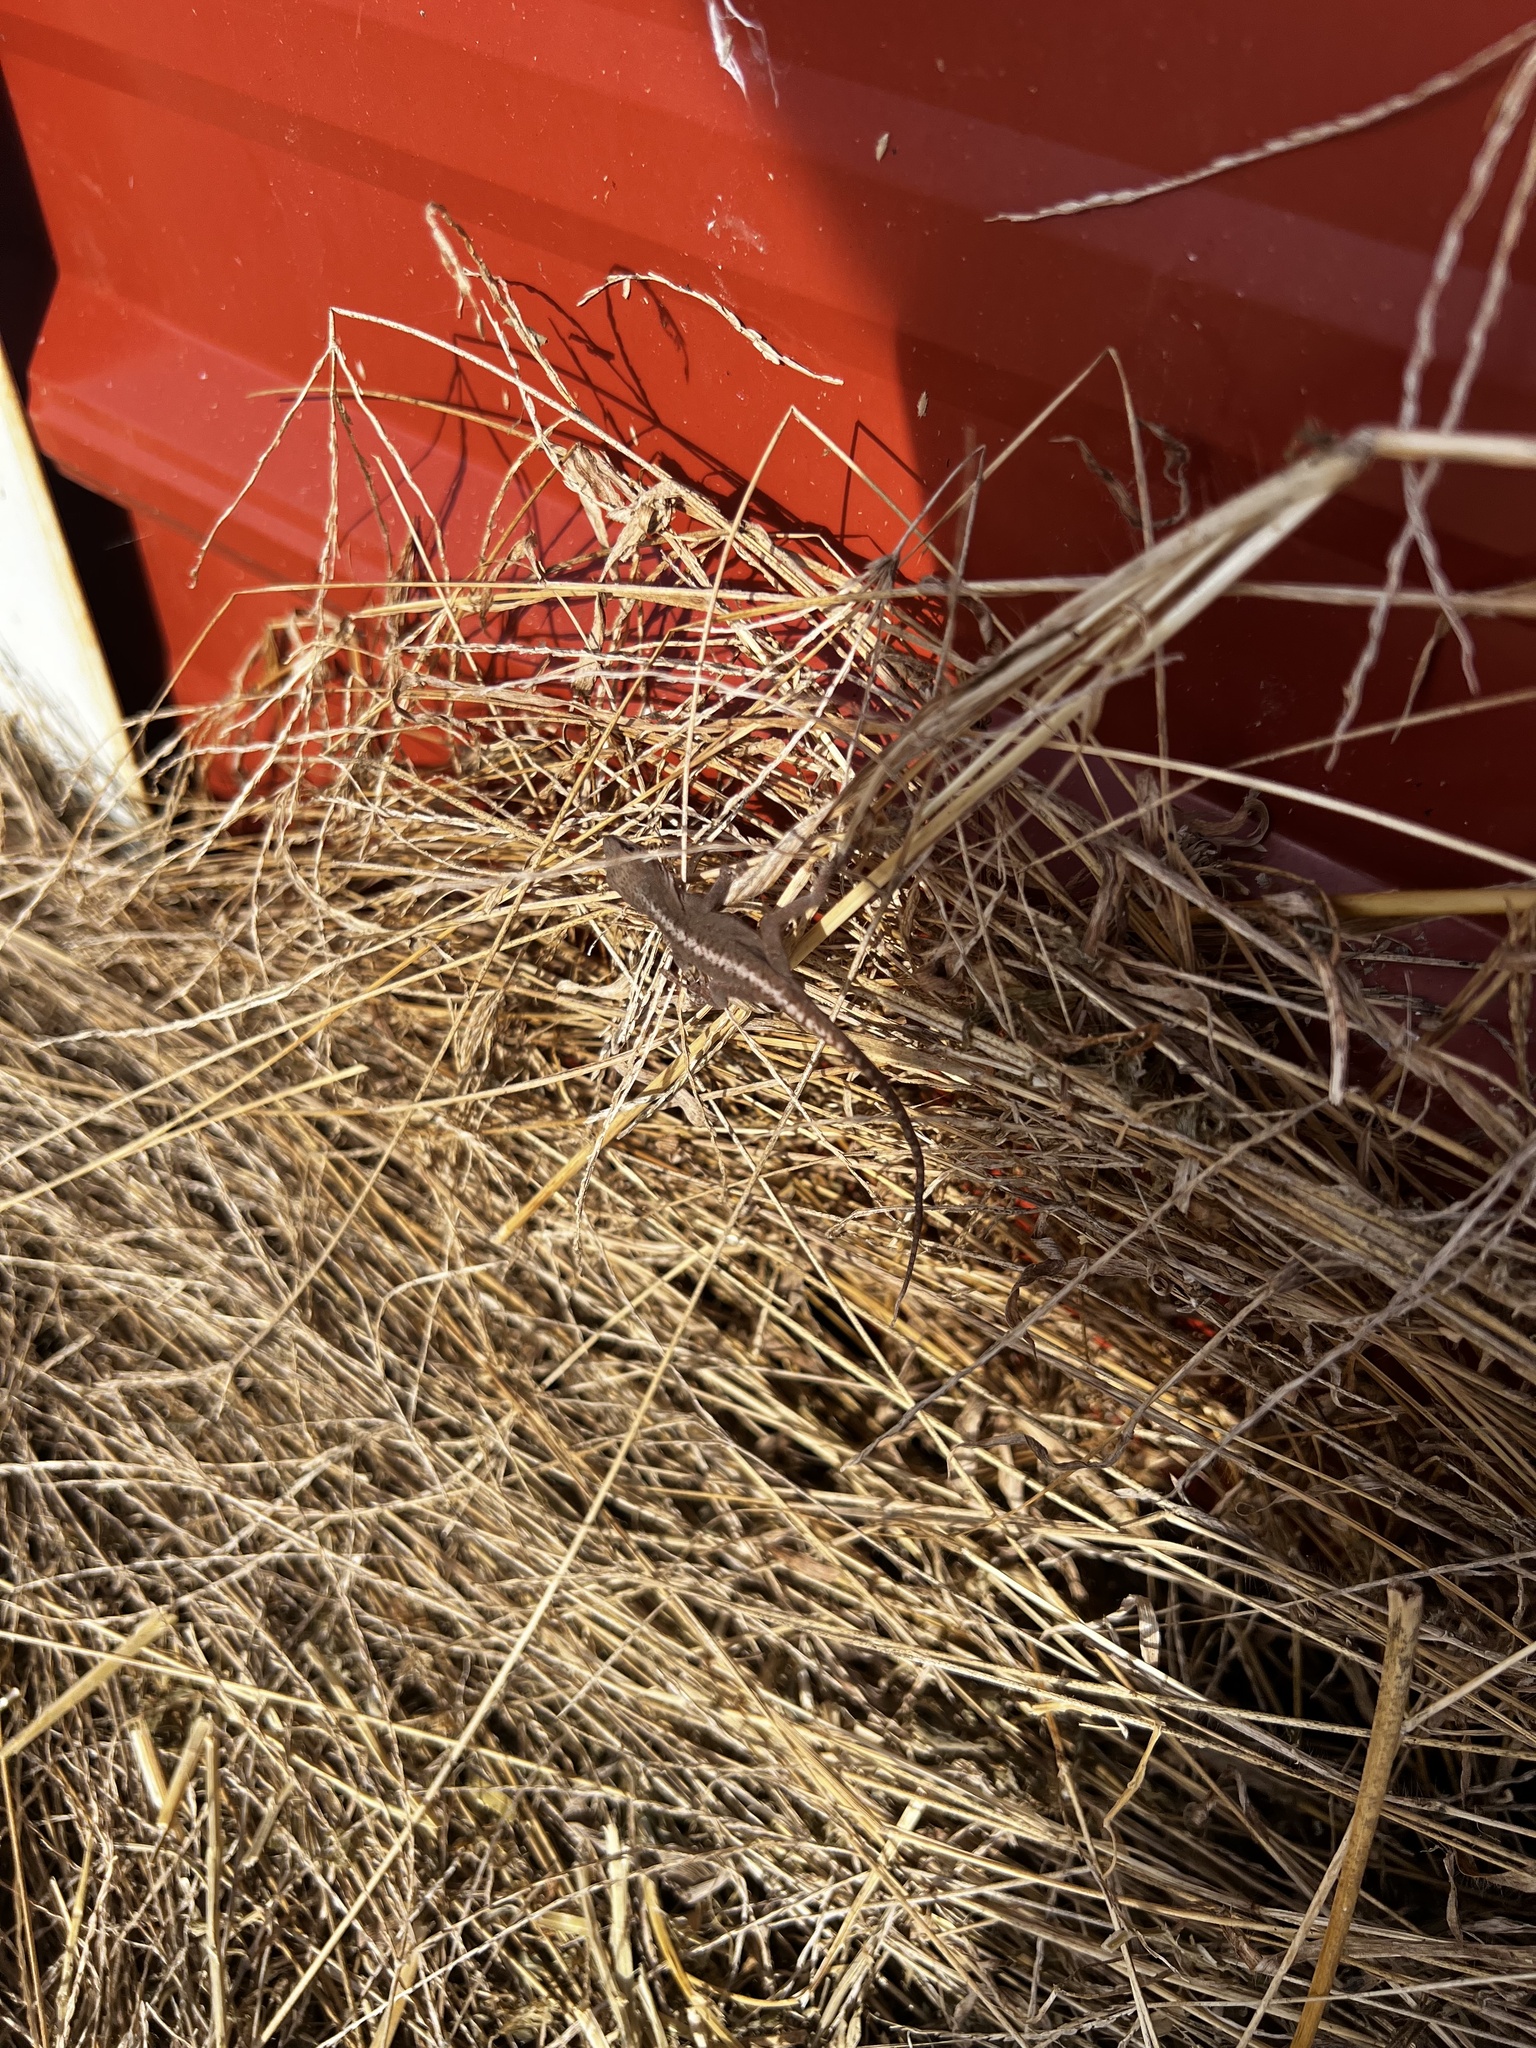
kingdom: Animalia
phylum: Chordata
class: Squamata
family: Dactyloidae
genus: Anolis
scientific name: Anolis carolinensis
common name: Green anole
